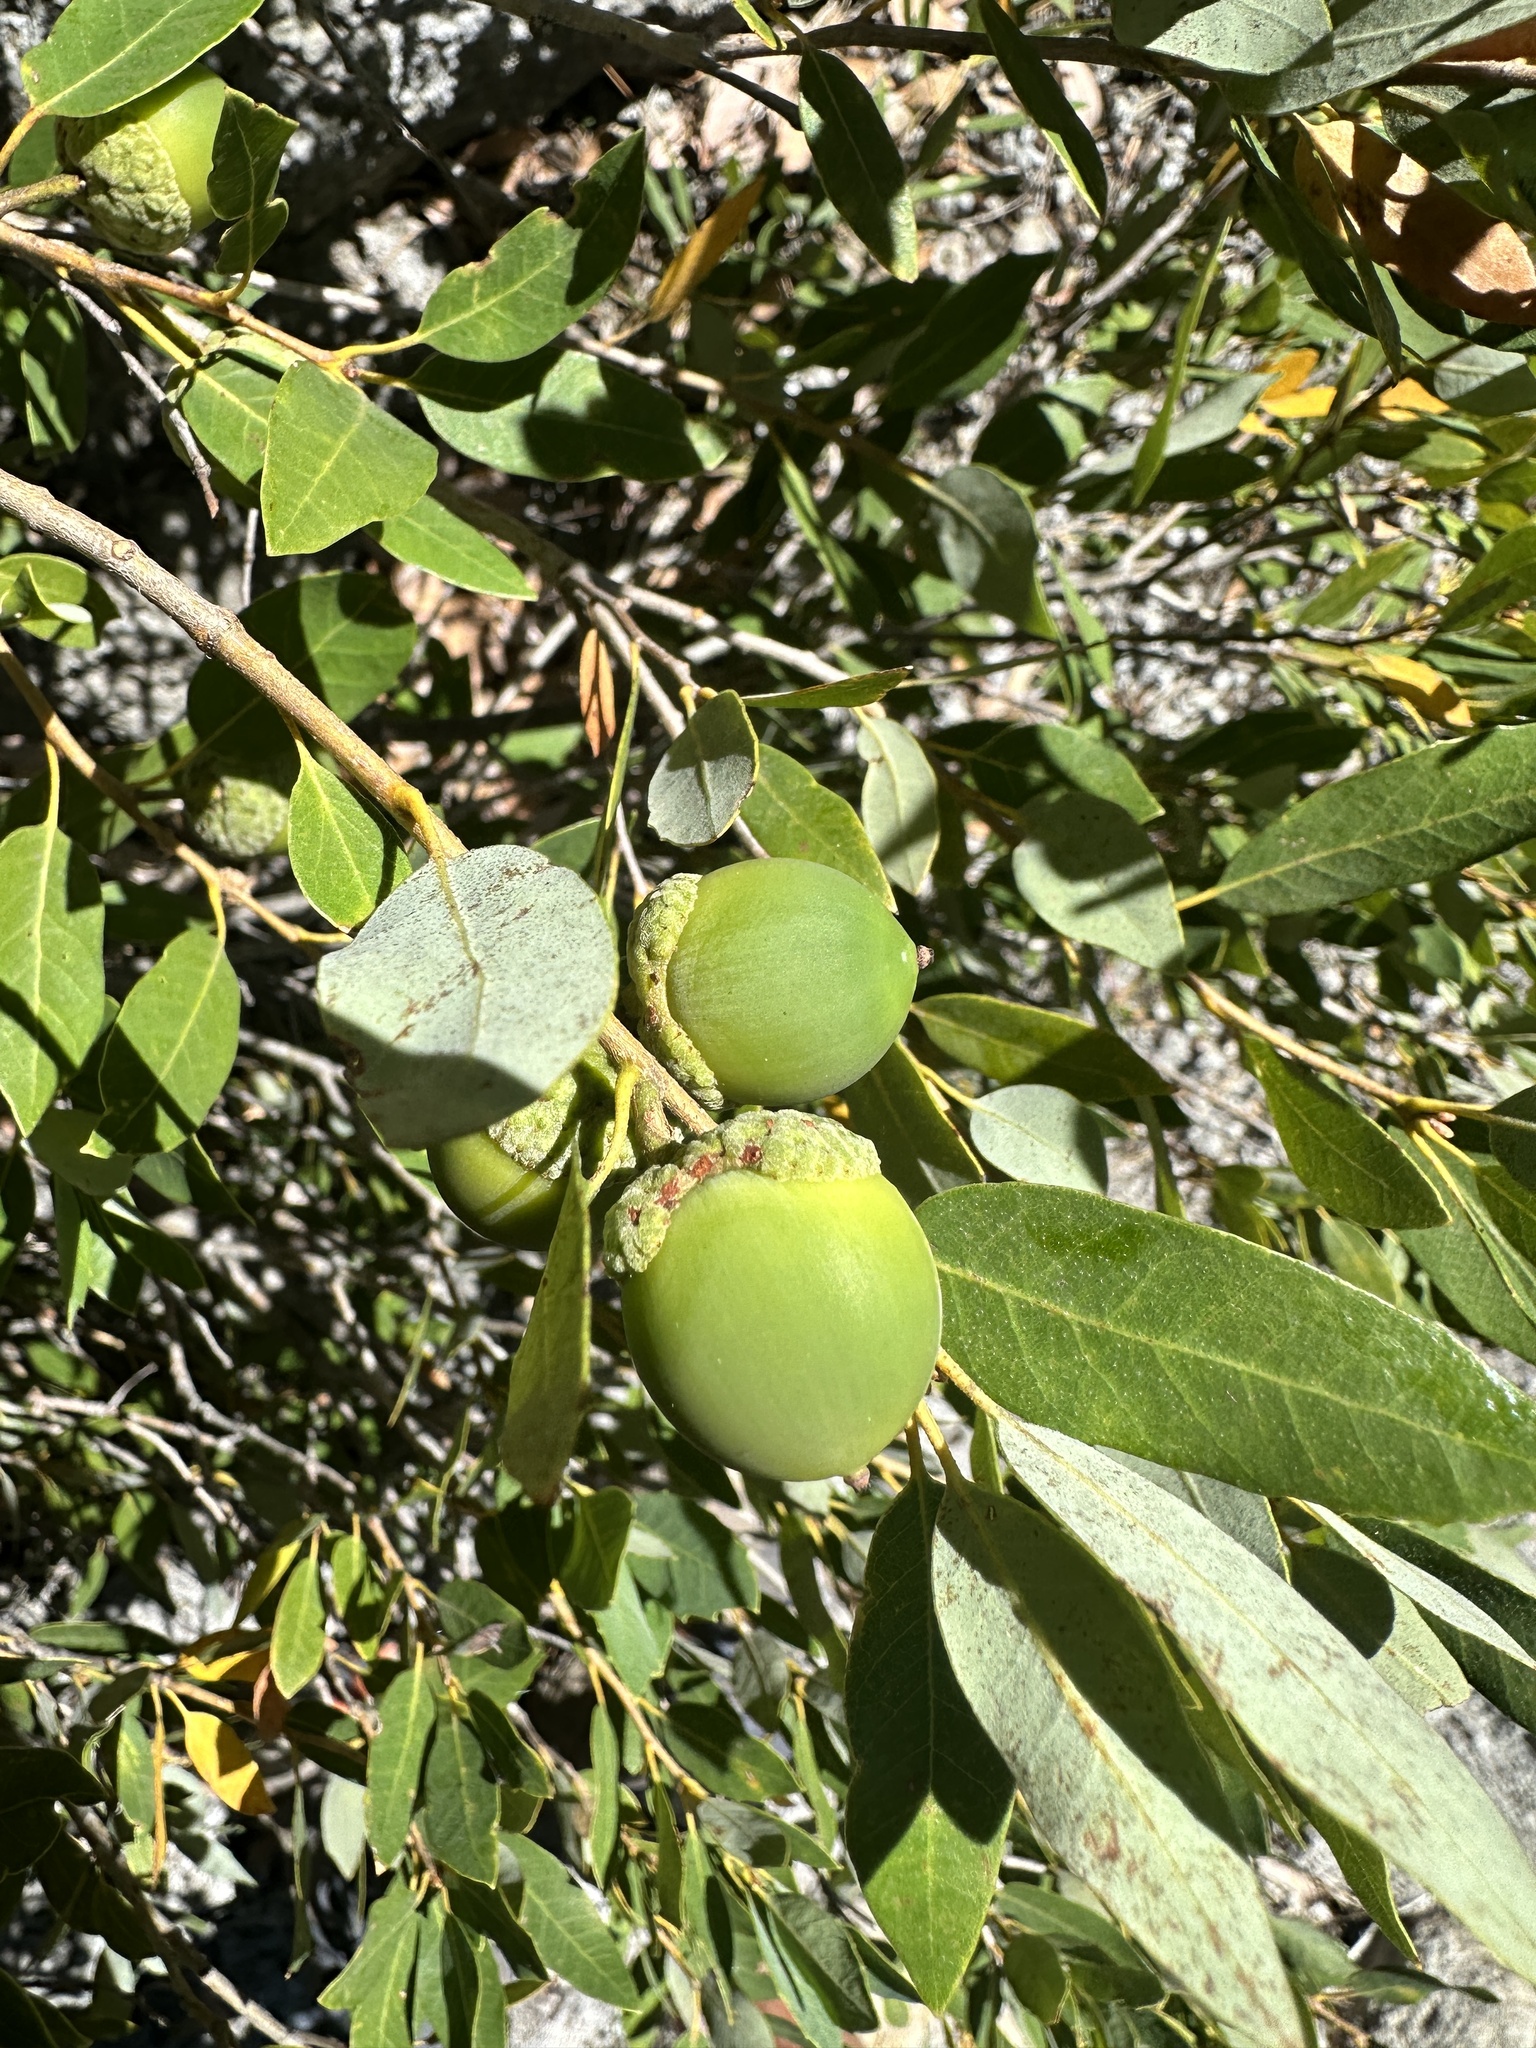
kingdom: Plantae
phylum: Tracheophyta
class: Magnoliopsida
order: Fagales
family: Fagaceae
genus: Quercus
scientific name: Quercus vacciniifolia
